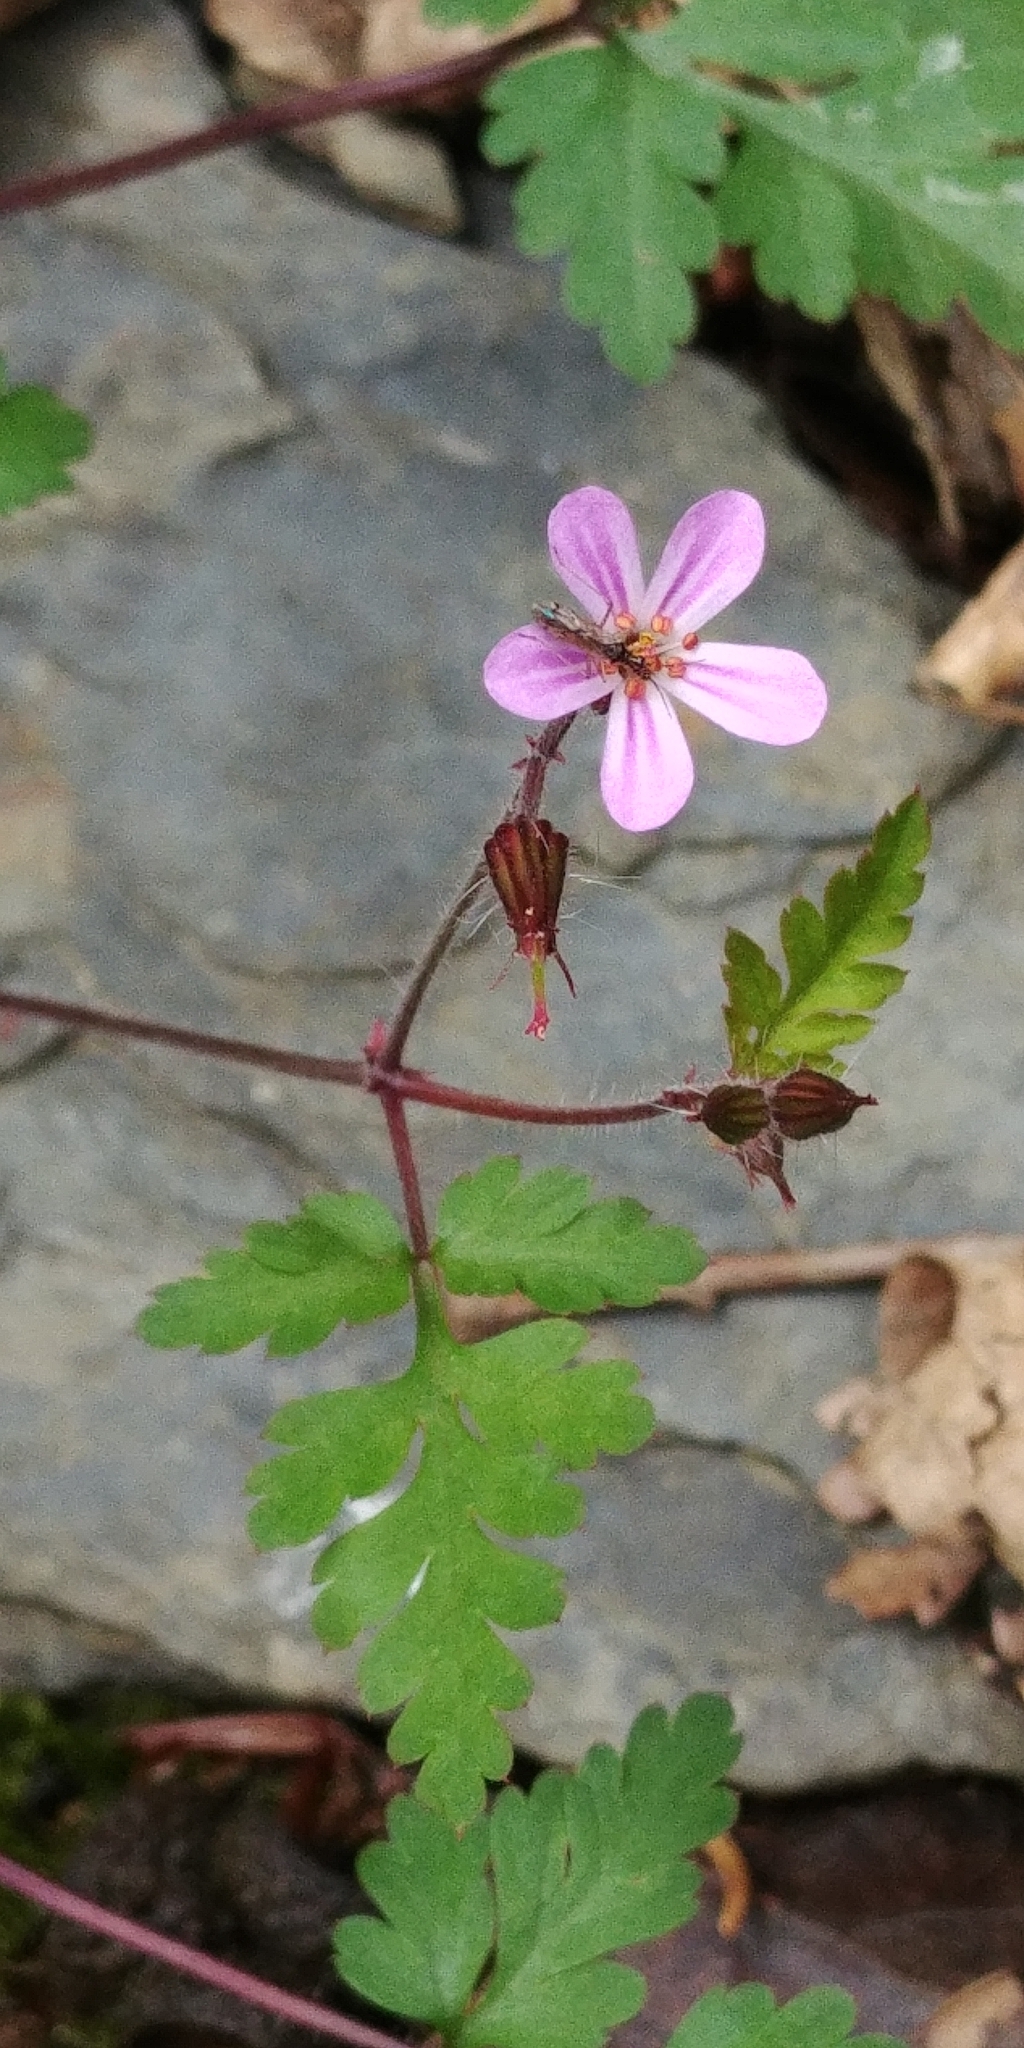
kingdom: Plantae
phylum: Tracheophyta
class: Magnoliopsida
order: Geraniales
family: Geraniaceae
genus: Geranium
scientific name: Geranium robertianum
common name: Herb-robert
